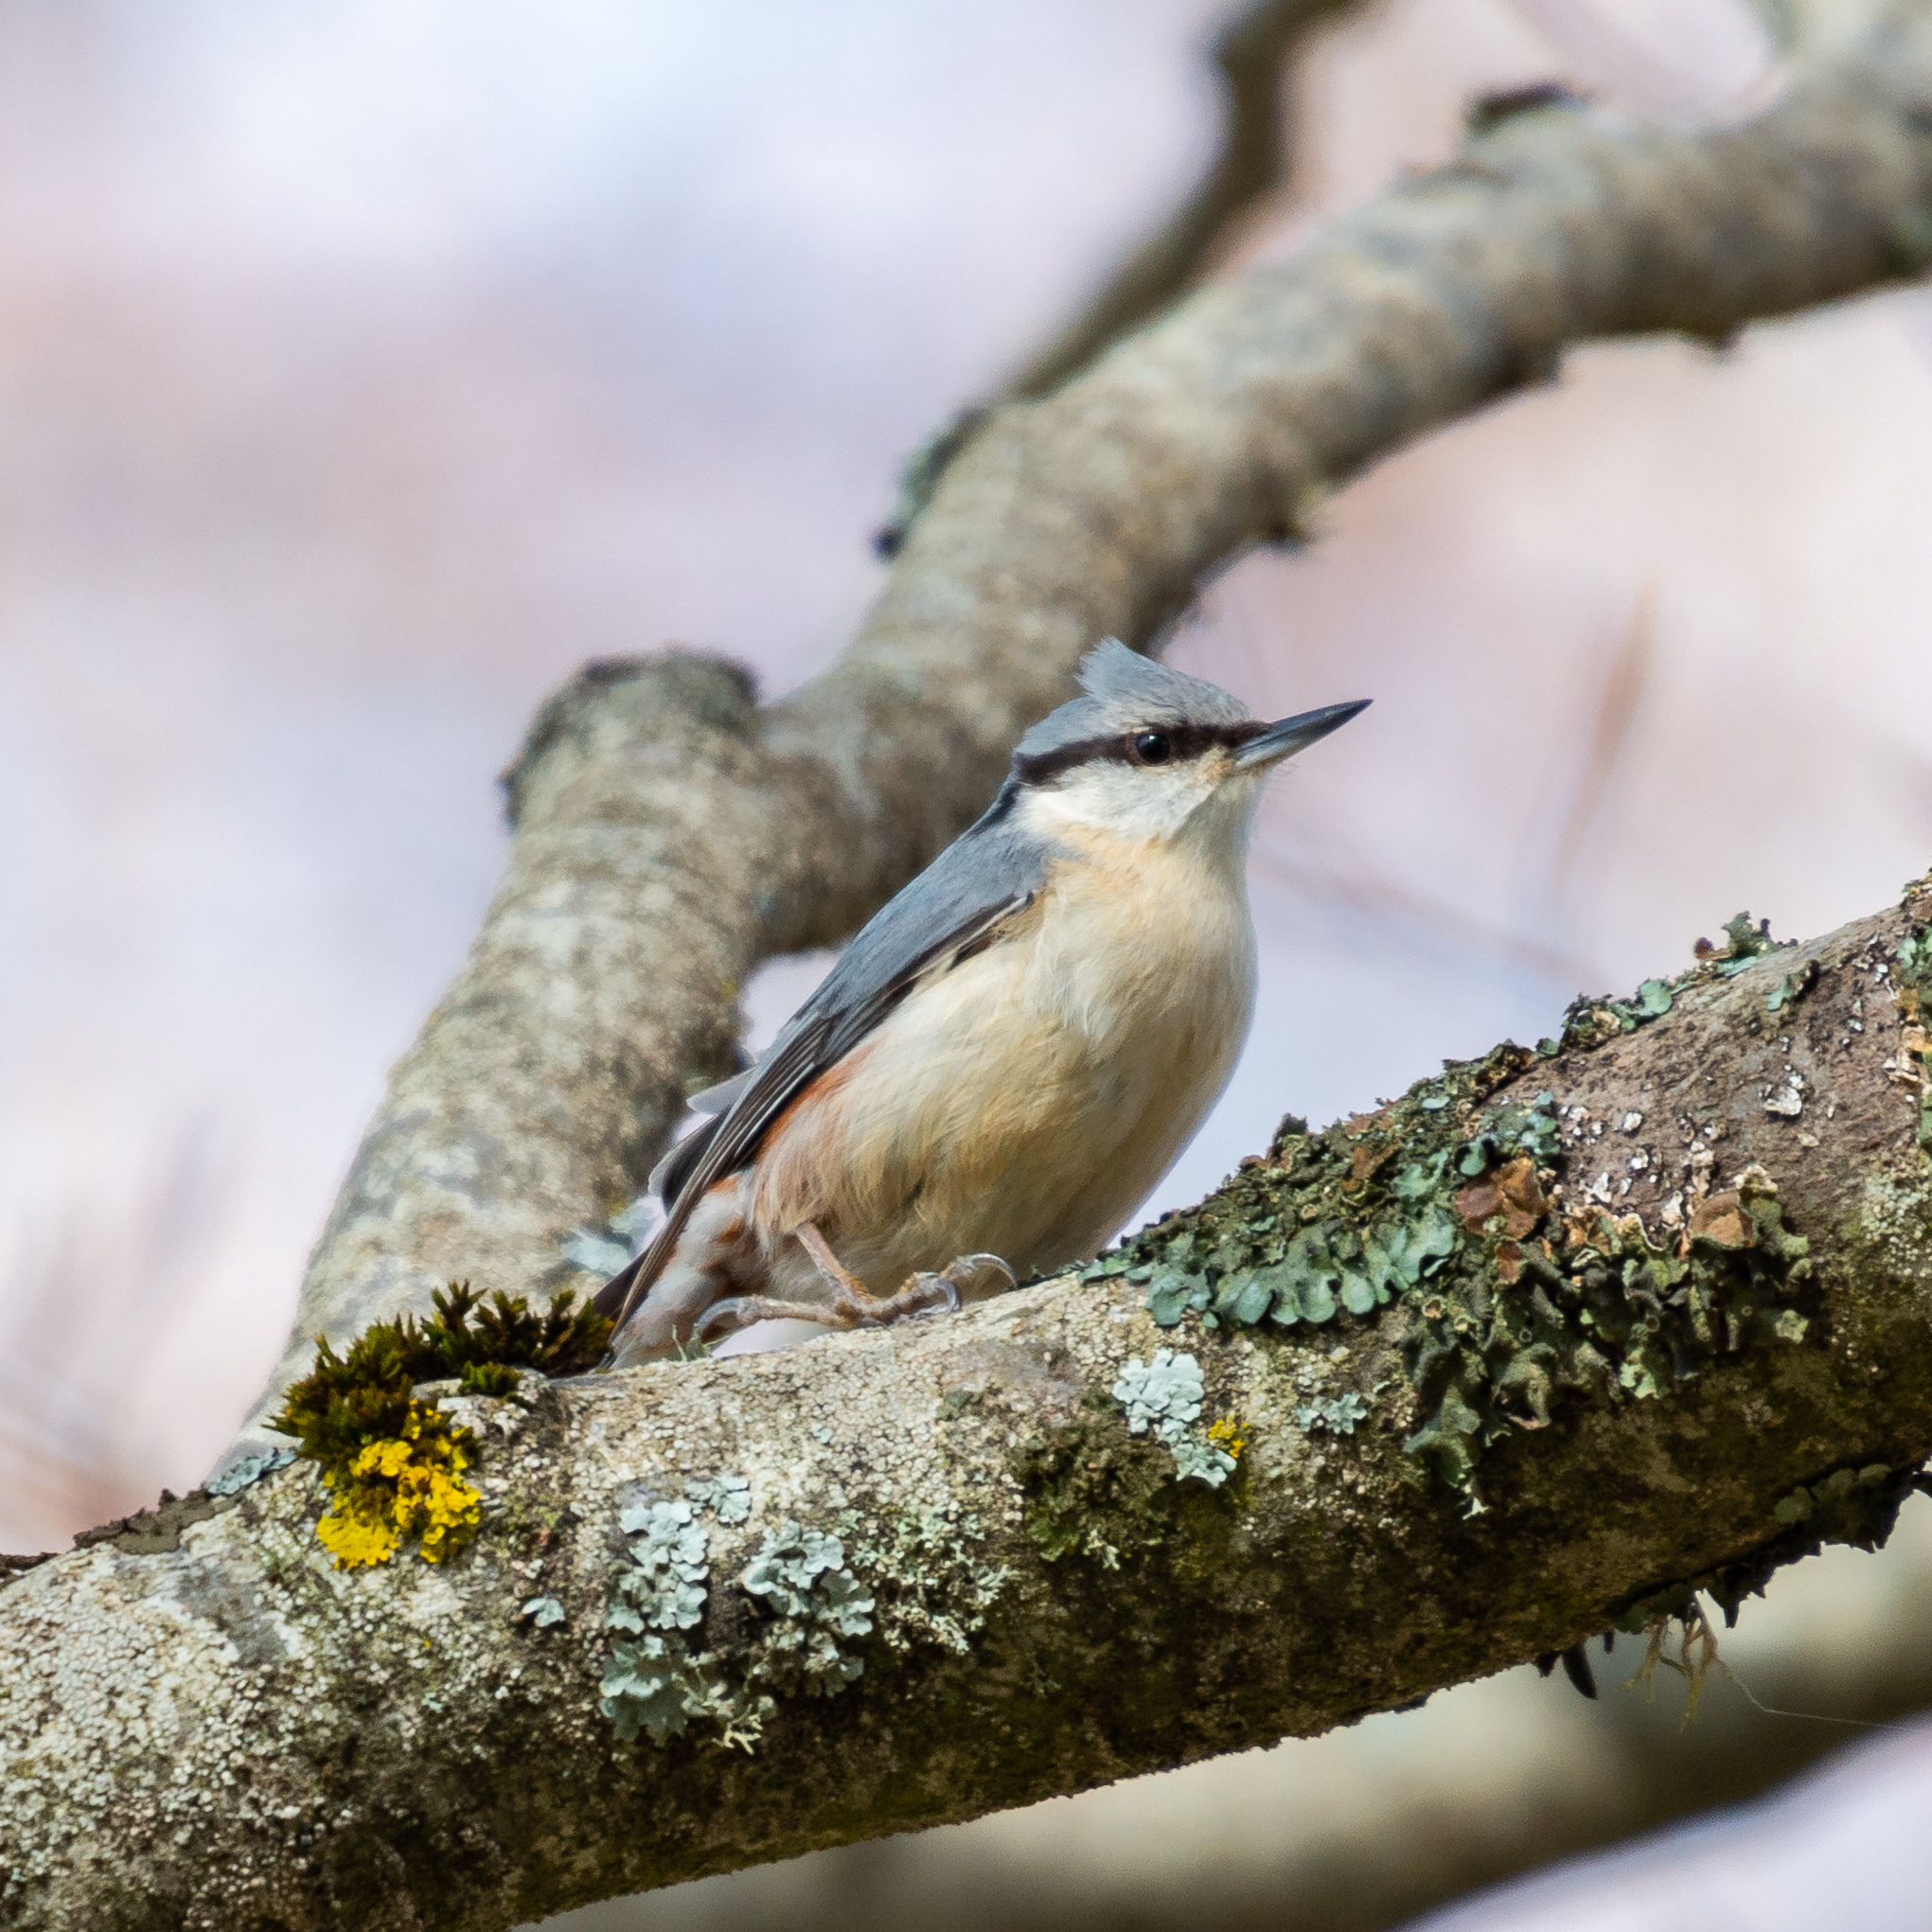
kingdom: Animalia
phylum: Chordata
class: Aves
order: Passeriformes
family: Sittidae
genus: Sitta
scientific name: Sitta europaea
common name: Eurasian nuthatch
